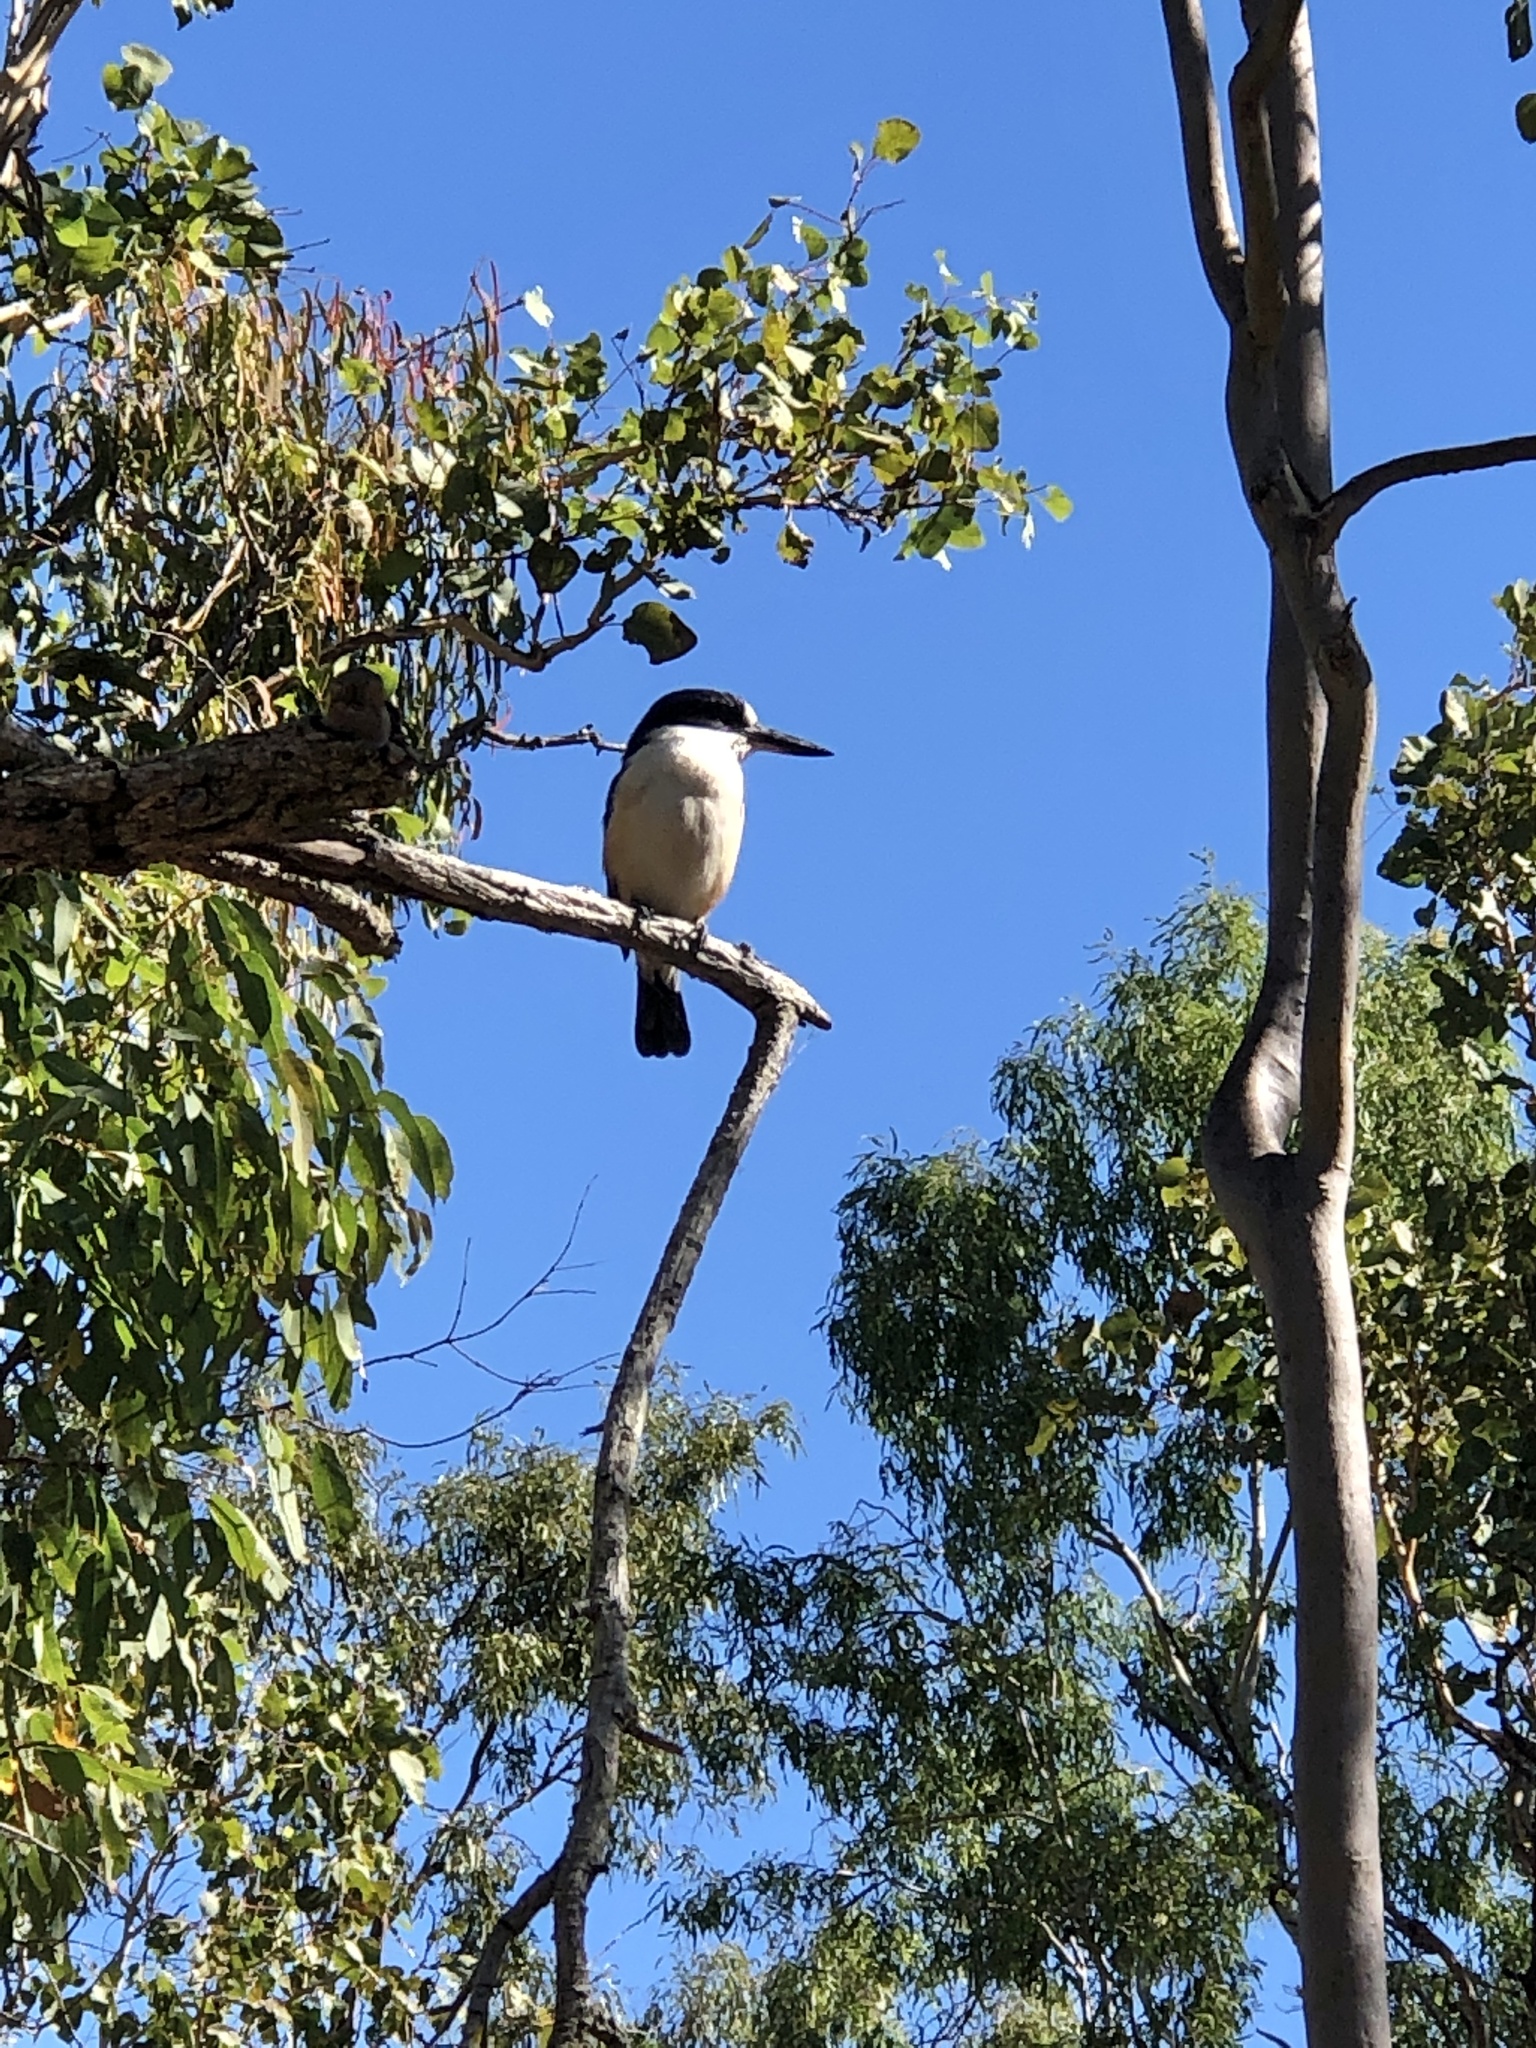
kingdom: Animalia
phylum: Chordata
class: Aves
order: Coraciiformes
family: Alcedinidae
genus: Todiramphus
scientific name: Todiramphus macleayii
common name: Forest kingfisher
